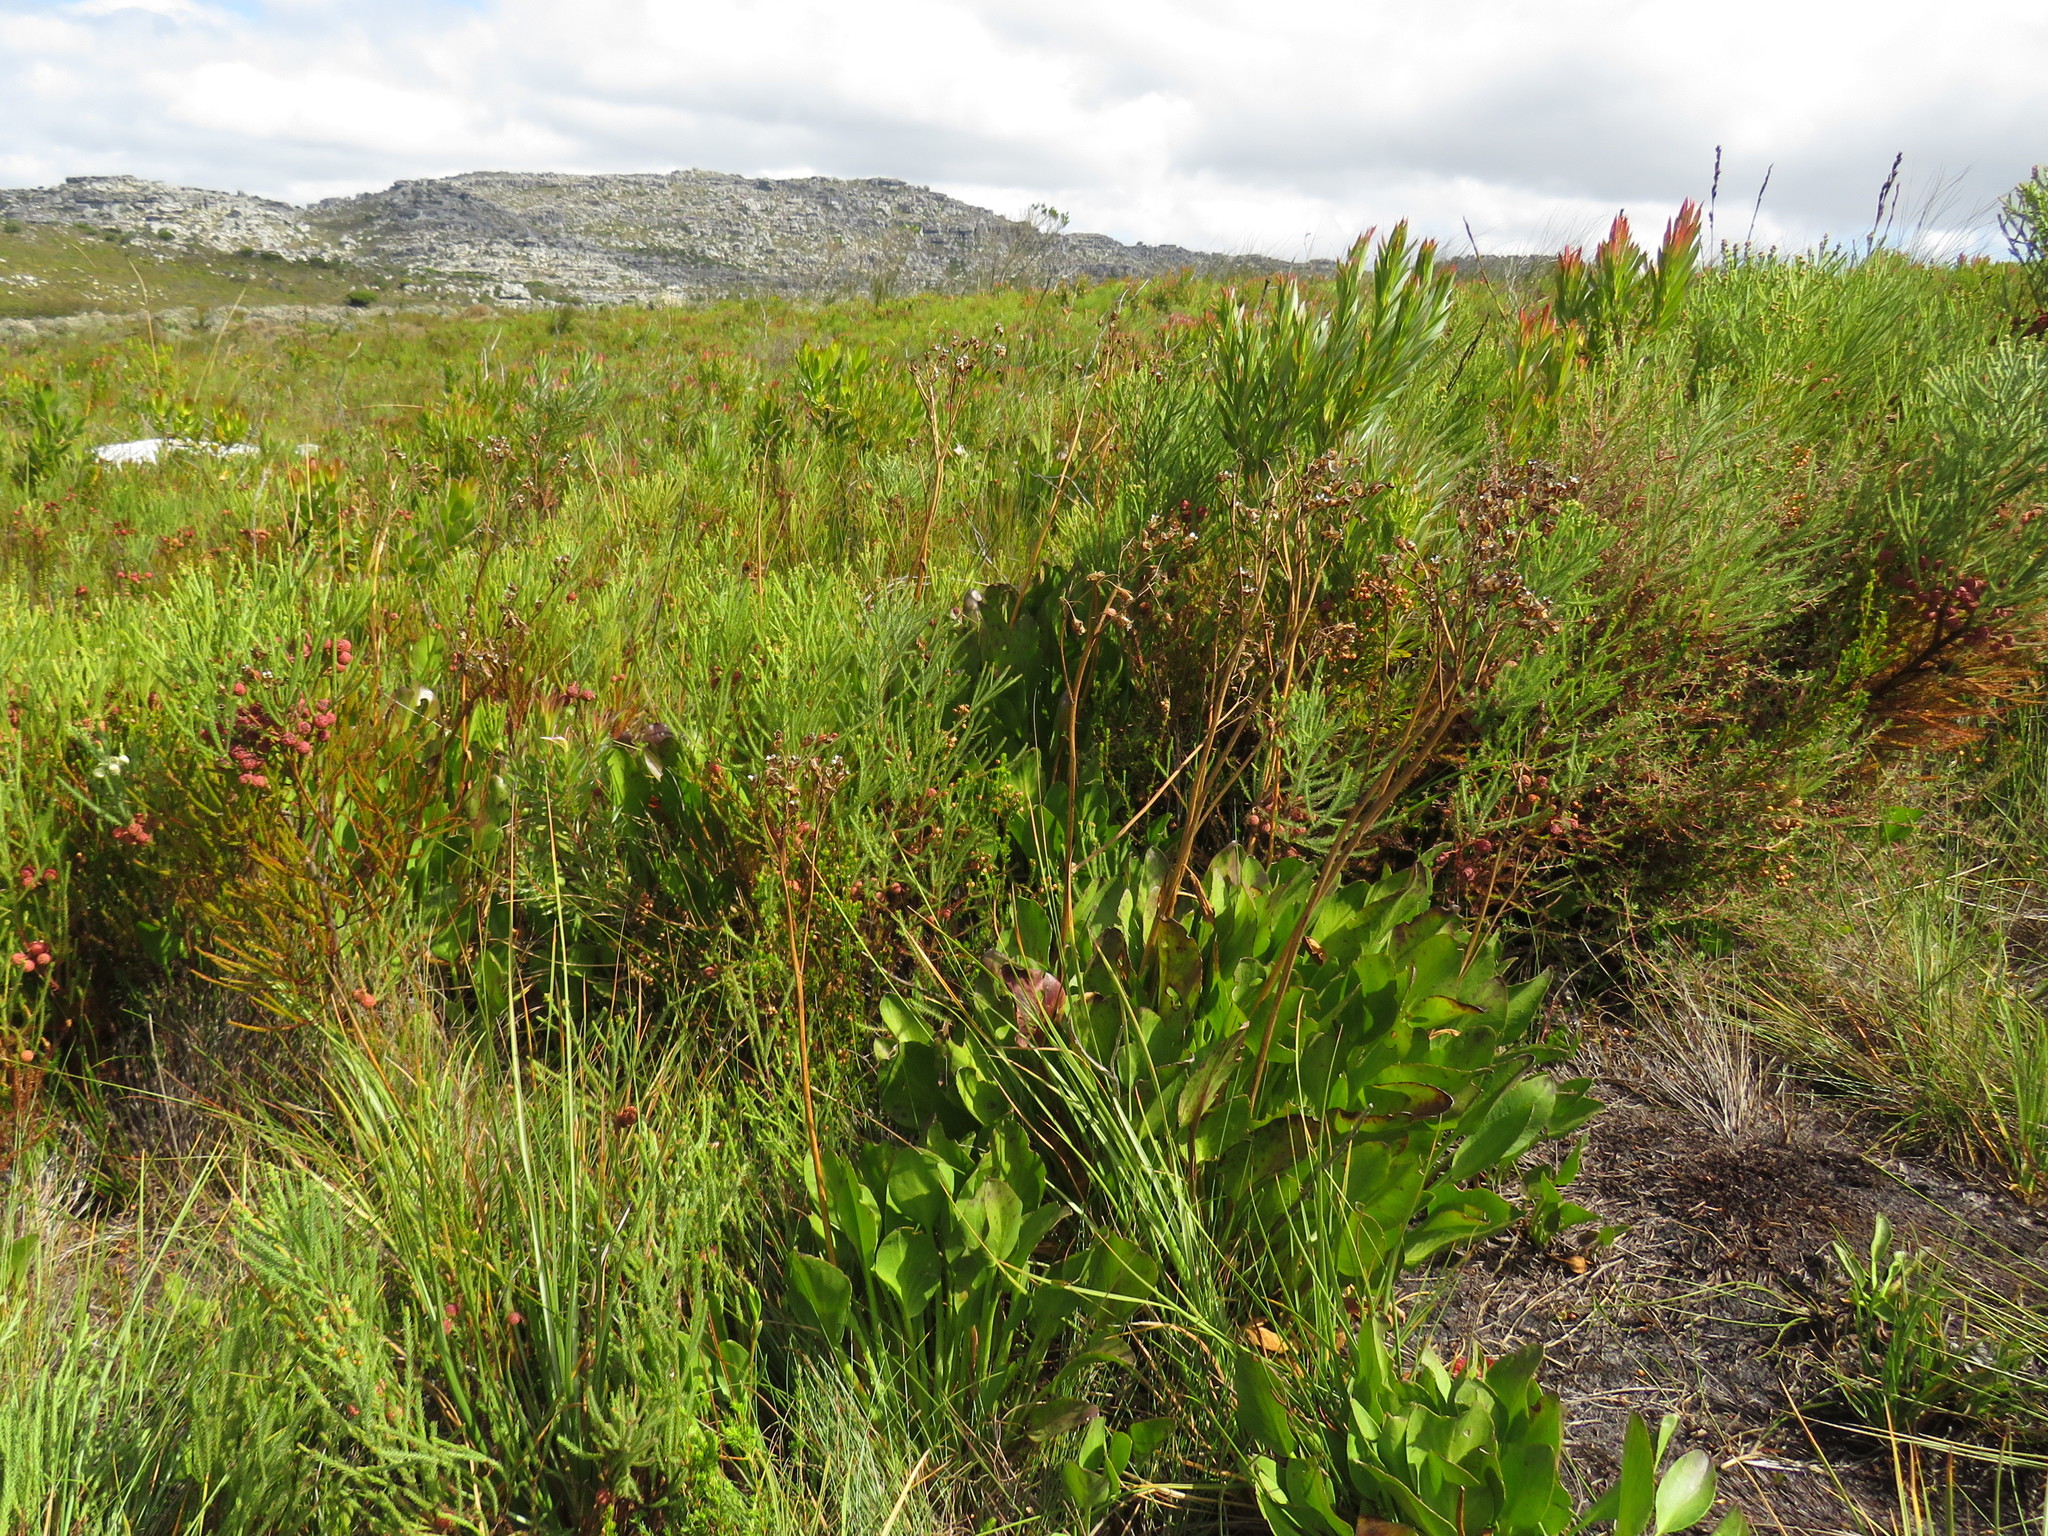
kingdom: Plantae
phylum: Tracheophyta
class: Magnoliopsida
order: Asterales
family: Menyanthaceae
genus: Villarsia
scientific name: Villarsia goldblattiana
